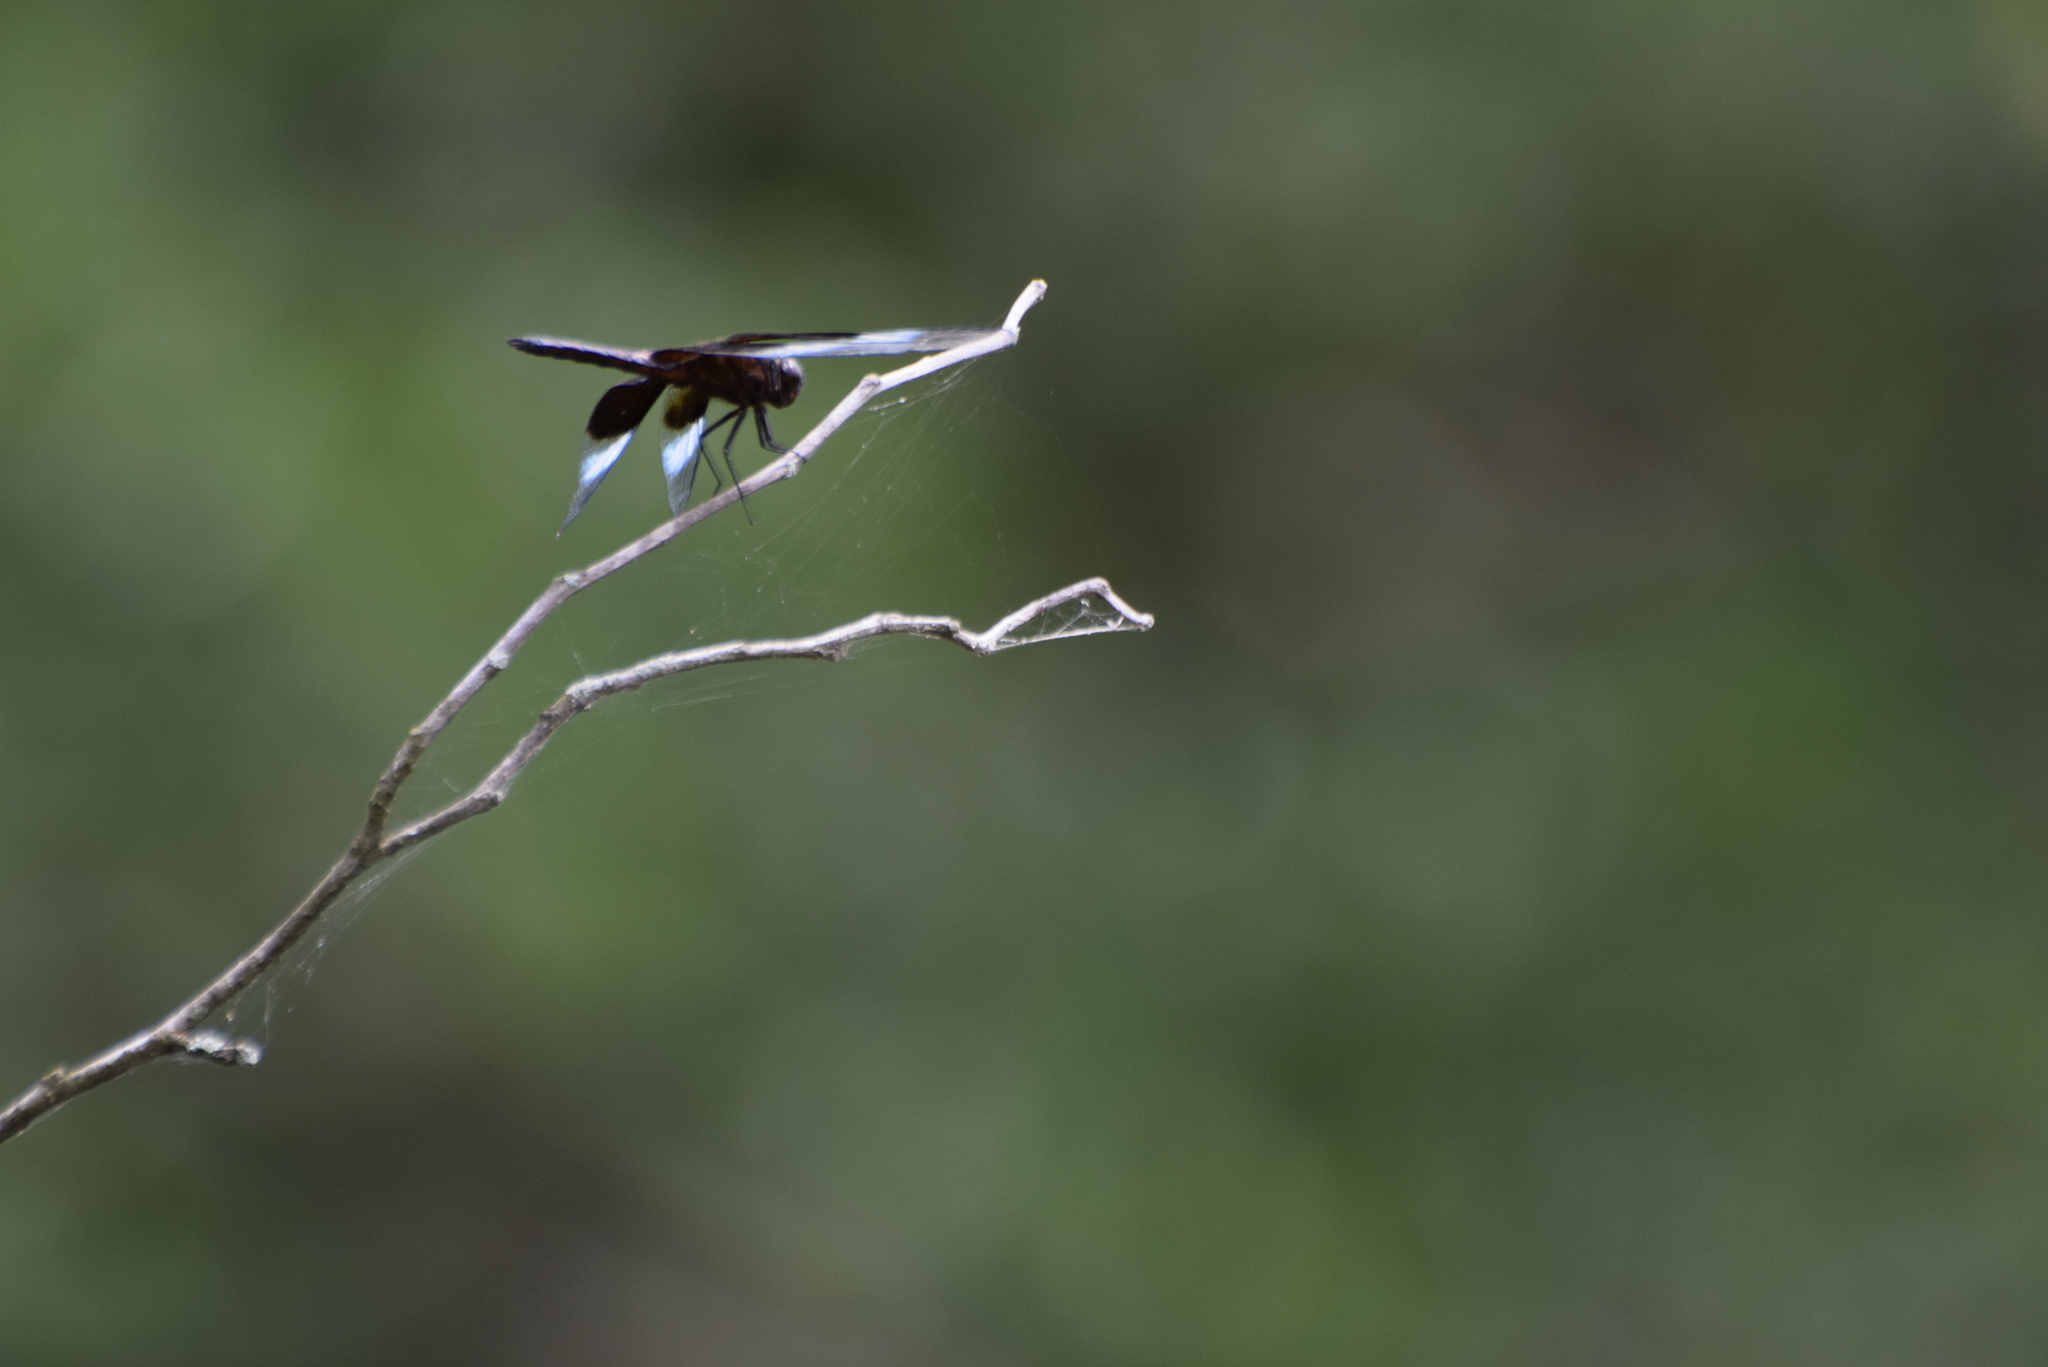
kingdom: Animalia
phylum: Arthropoda
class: Insecta
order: Odonata
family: Libellulidae
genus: Libellula
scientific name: Libellula luctuosa
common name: Widow skimmer
